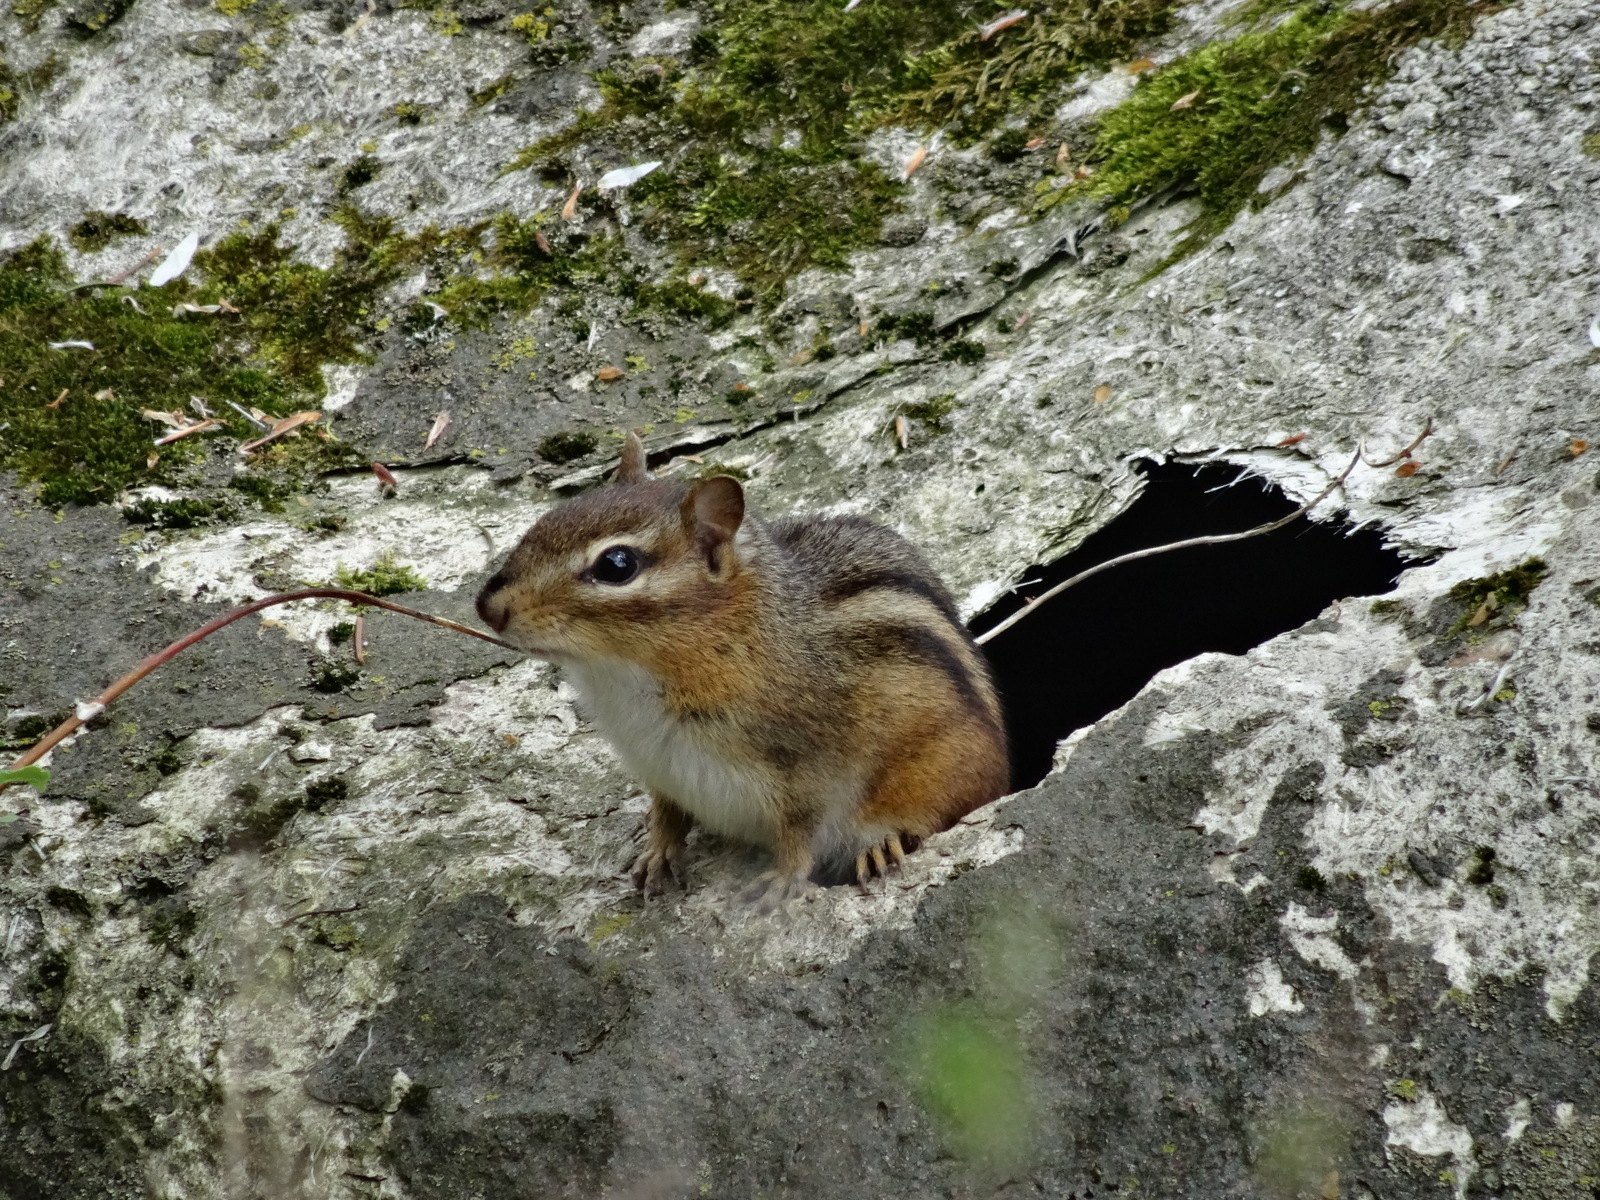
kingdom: Animalia
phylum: Chordata
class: Mammalia
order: Rodentia
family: Sciuridae
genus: Tamias
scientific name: Tamias striatus
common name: Eastern chipmunk
